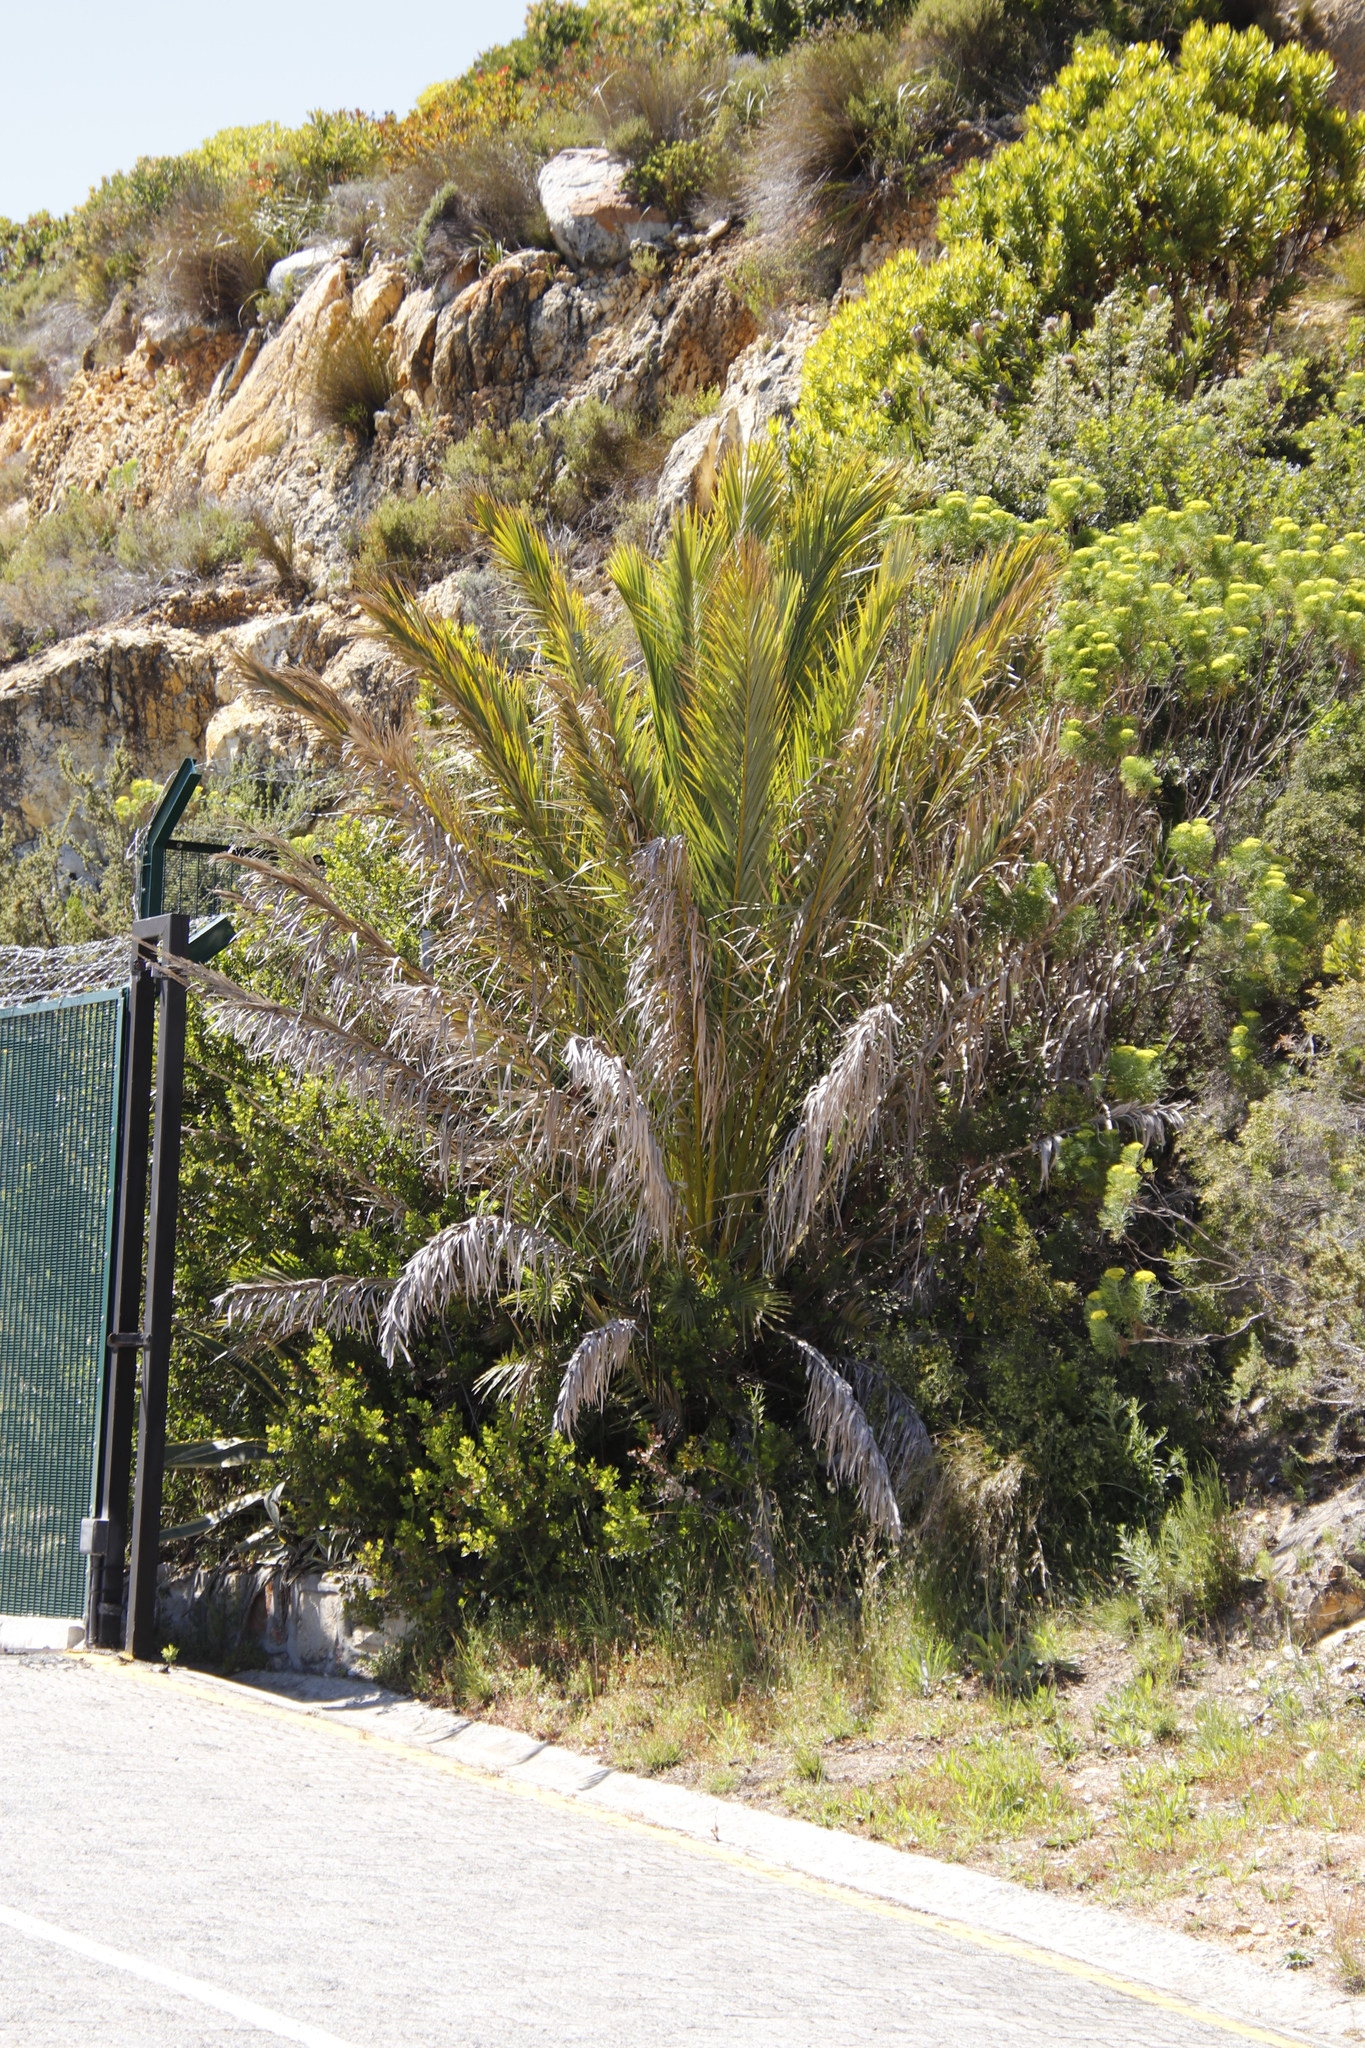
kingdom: Plantae
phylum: Tracheophyta
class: Liliopsida
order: Arecales
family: Arecaceae
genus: Phoenix
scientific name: Phoenix canariensis
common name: Canary island date palm
